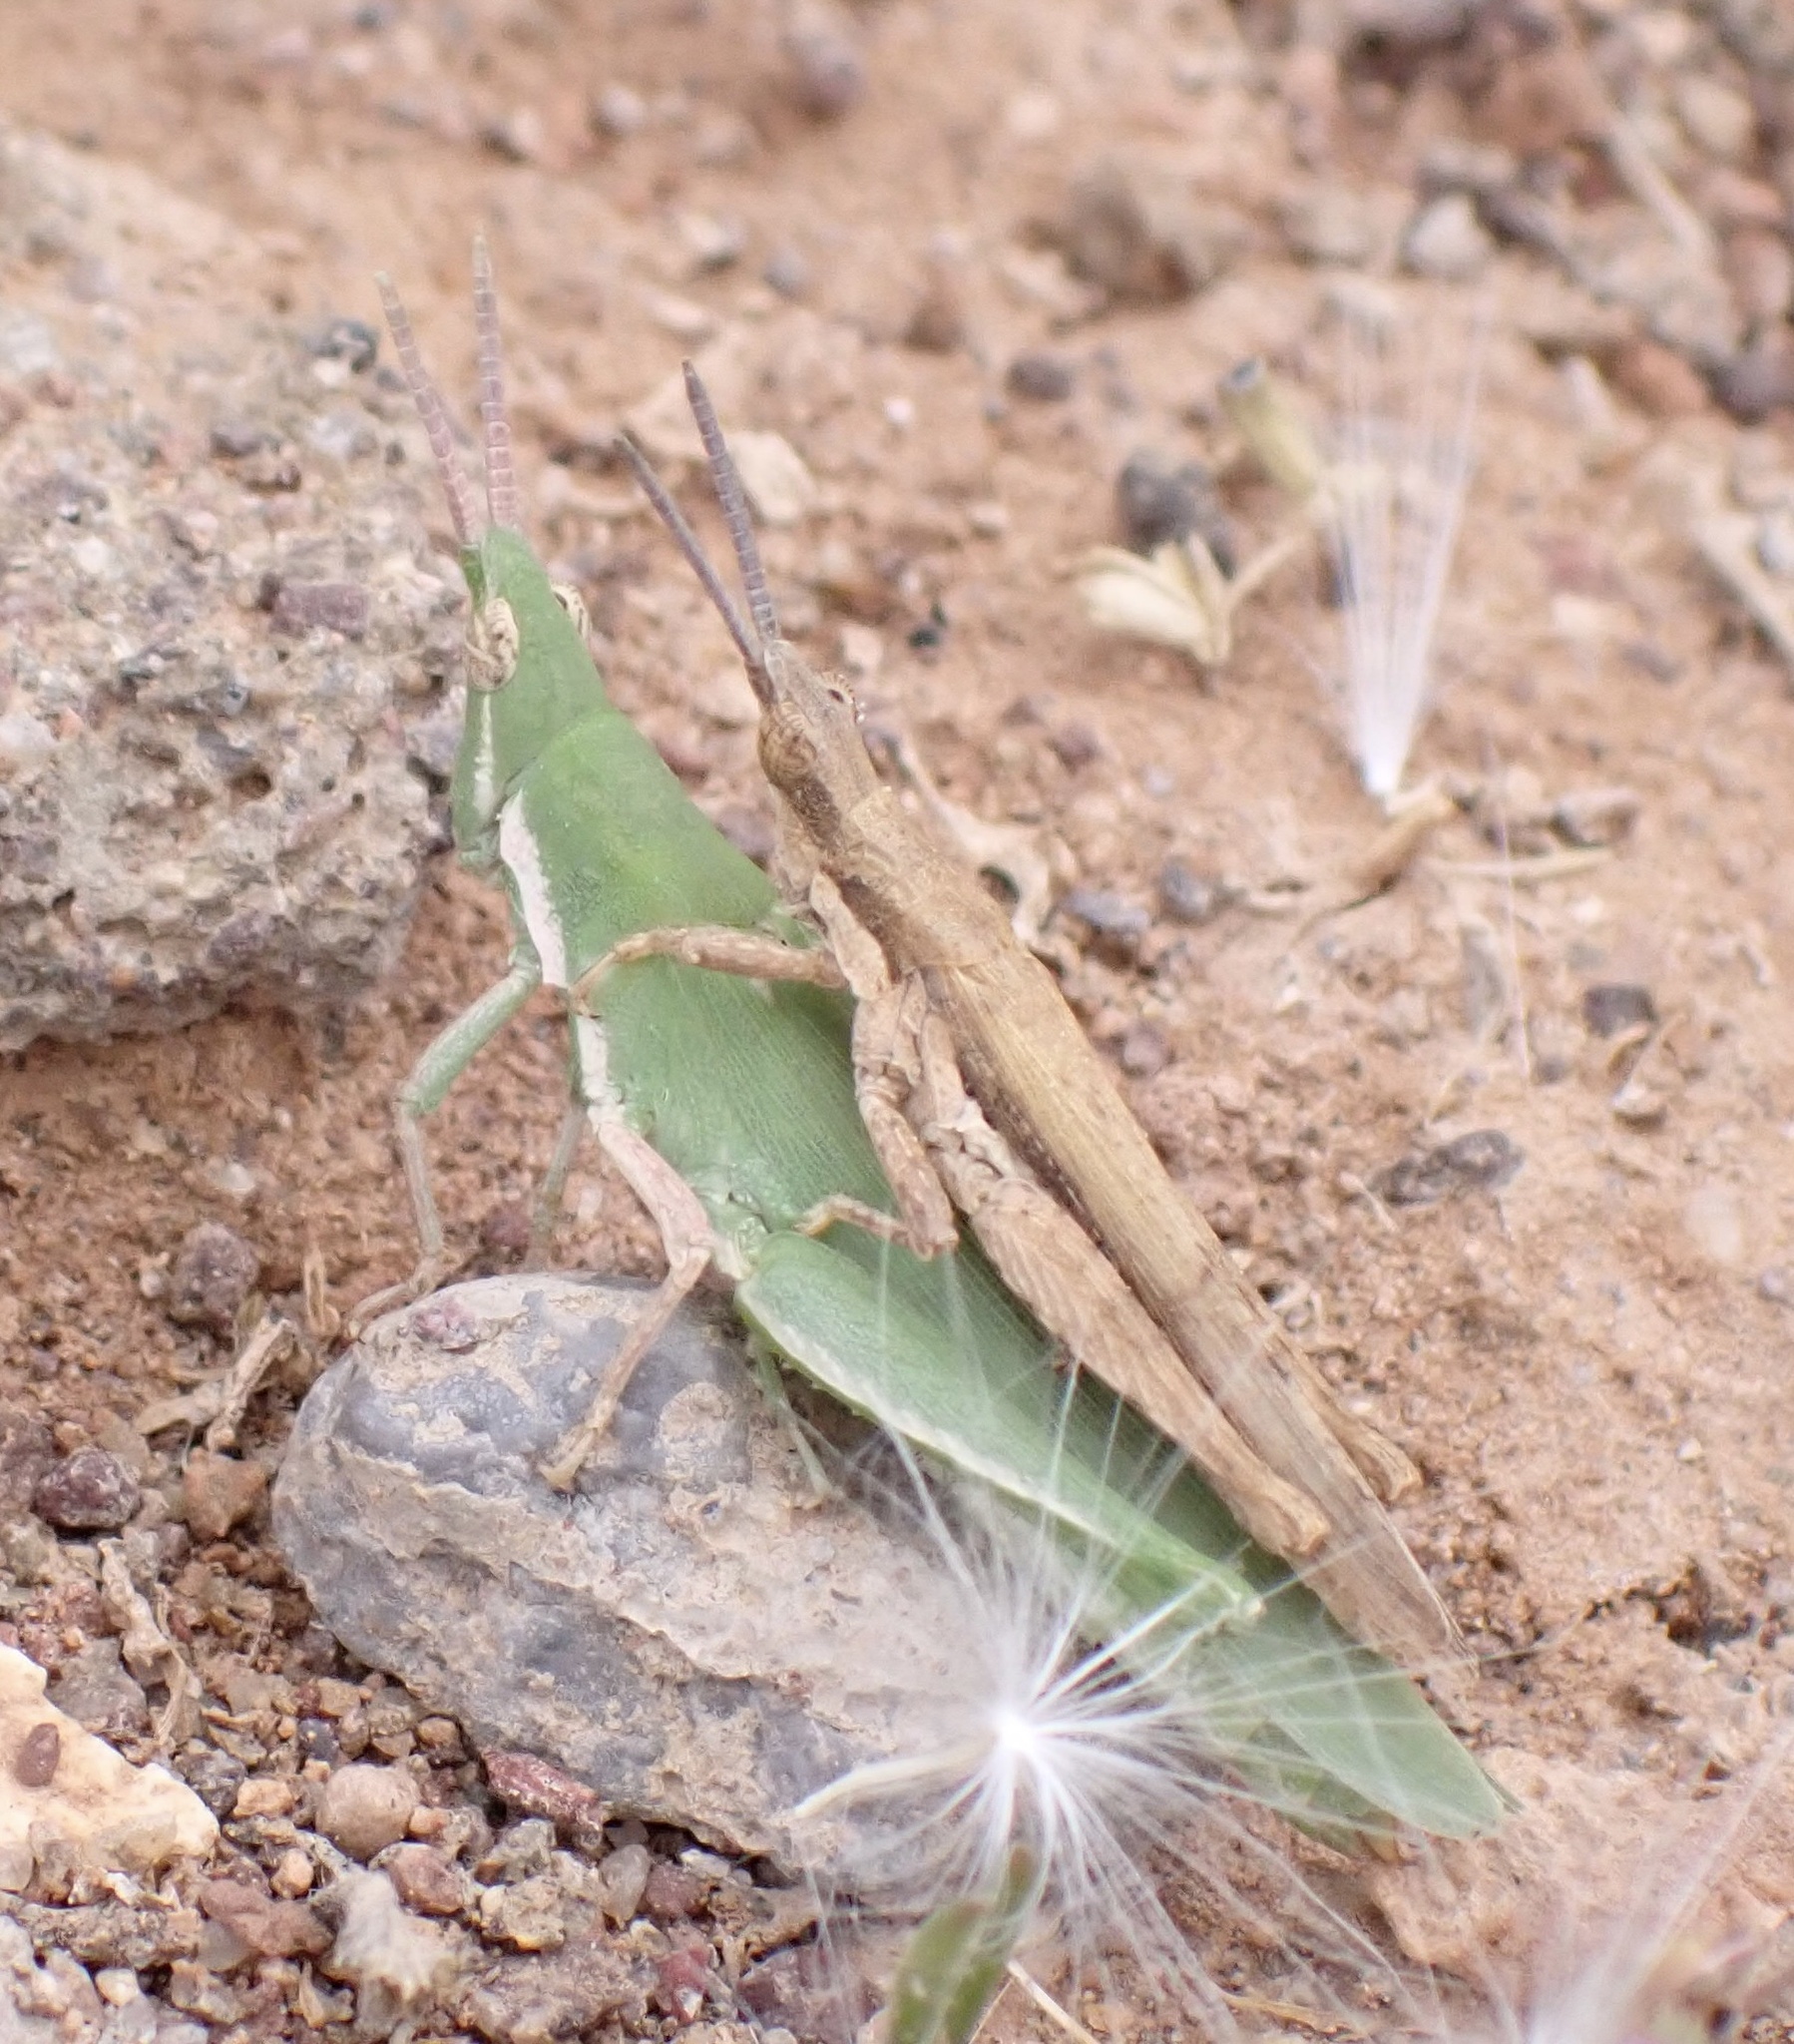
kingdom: Animalia
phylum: Arthropoda
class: Insecta
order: Orthoptera
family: Pyrgomorphidae
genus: Pyrgomorpha
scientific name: Pyrgomorpha conica
